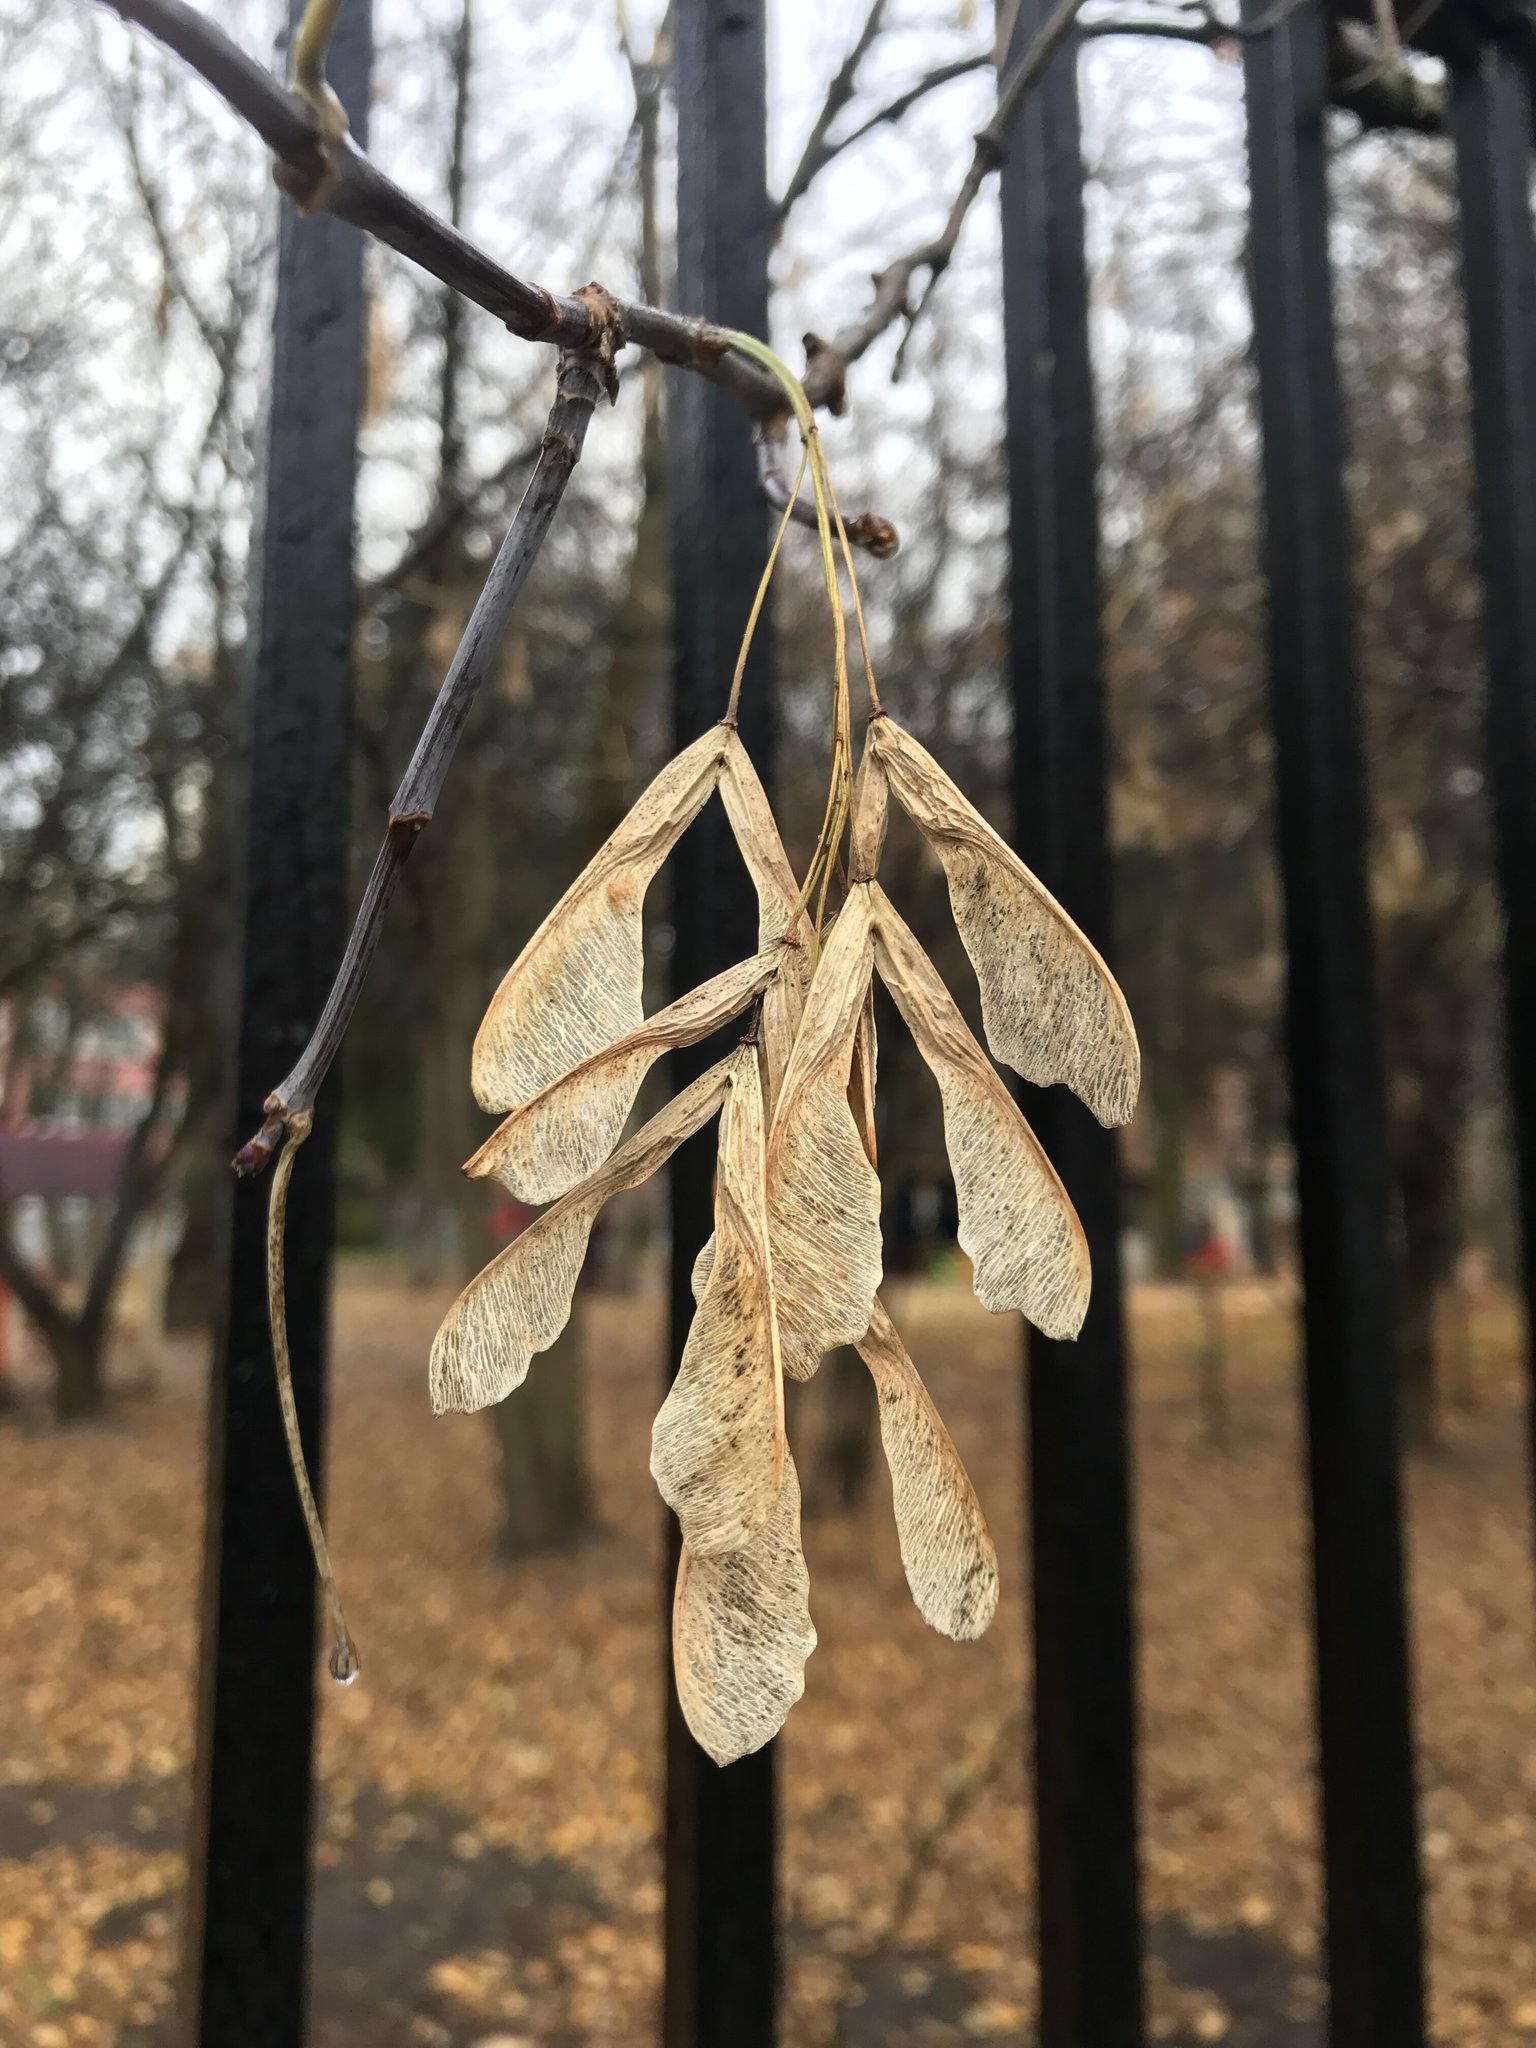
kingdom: Plantae
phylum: Tracheophyta
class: Magnoliopsida
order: Sapindales
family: Sapindaceae
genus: Acer
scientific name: Acer negundo
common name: Ashleaf maple
